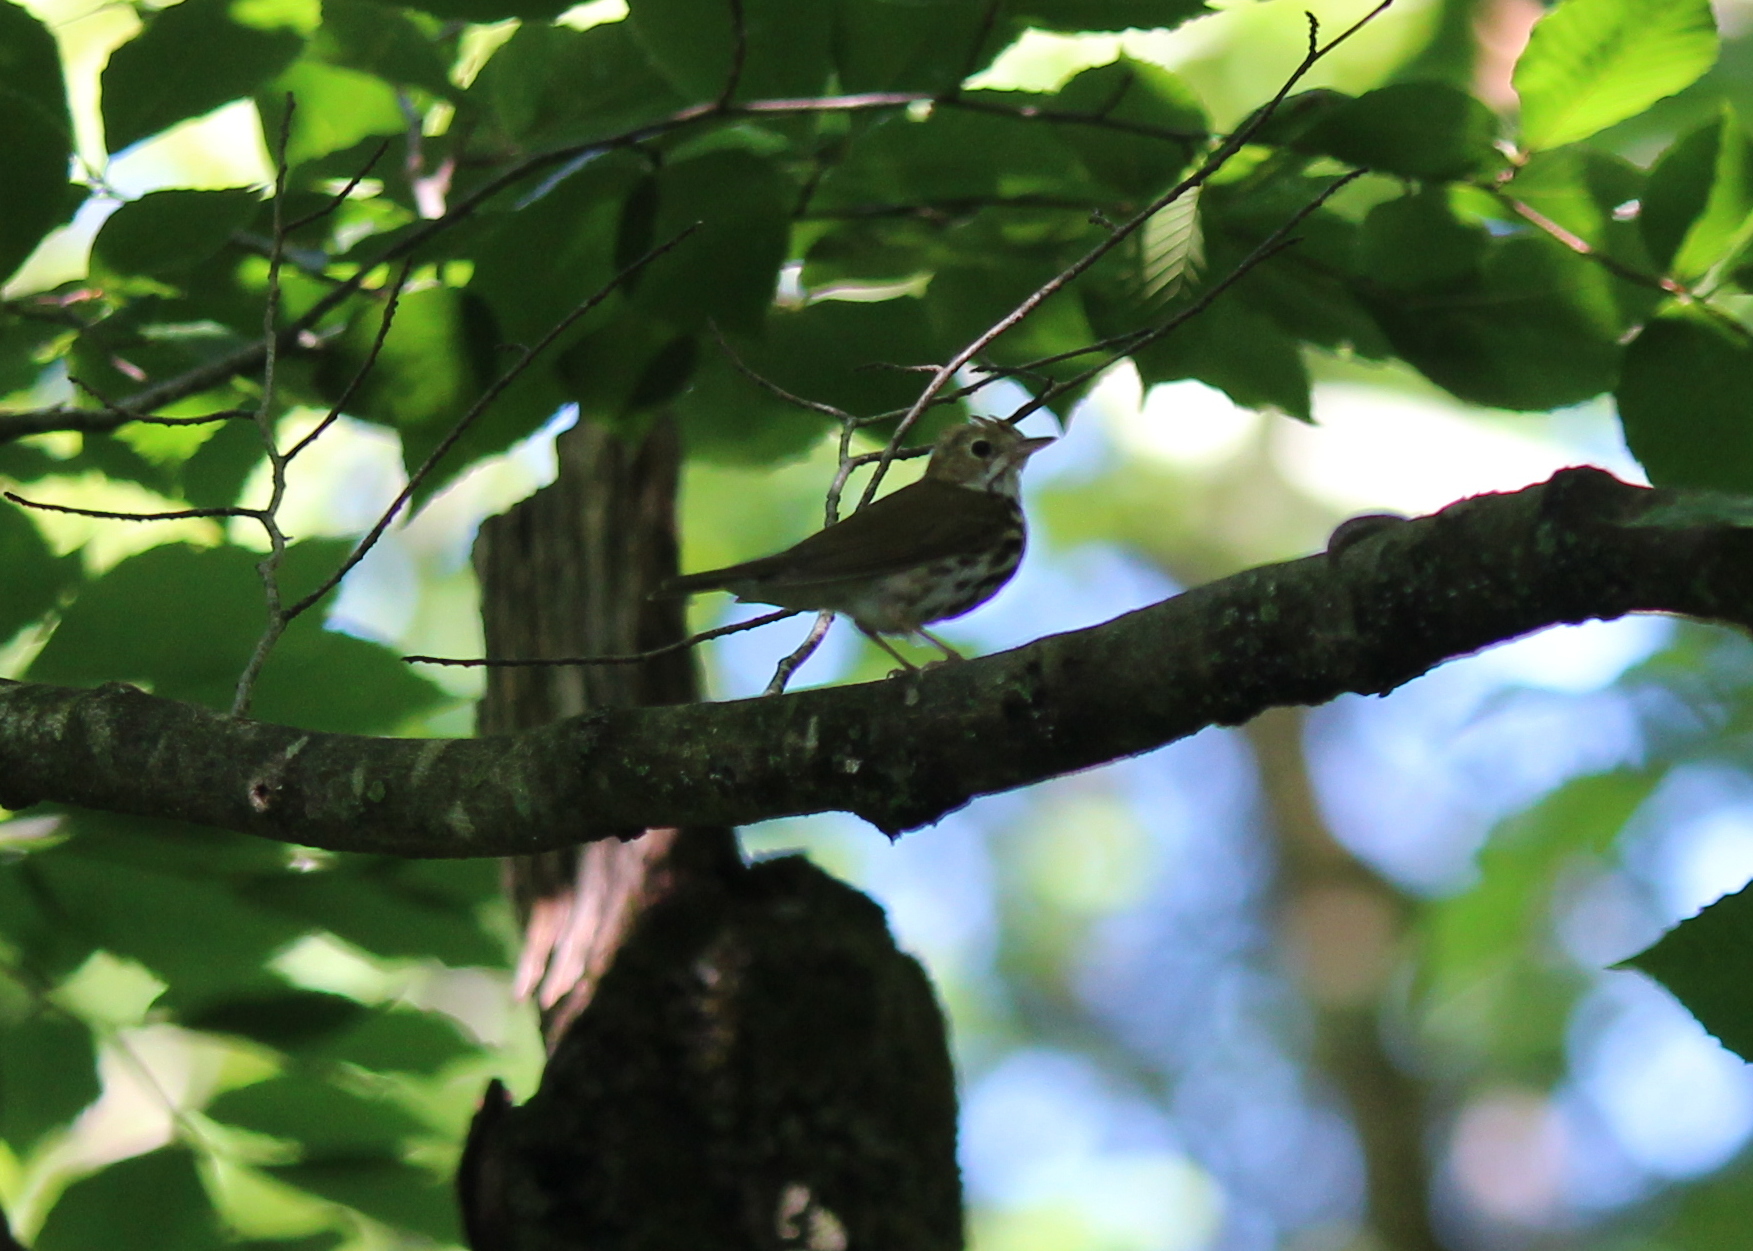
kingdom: Animalia
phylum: Chordata
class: Aves
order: Passeriformes
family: Parulidae
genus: Seiurus
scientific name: Seiurus aurocapilla
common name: Ovenbird
